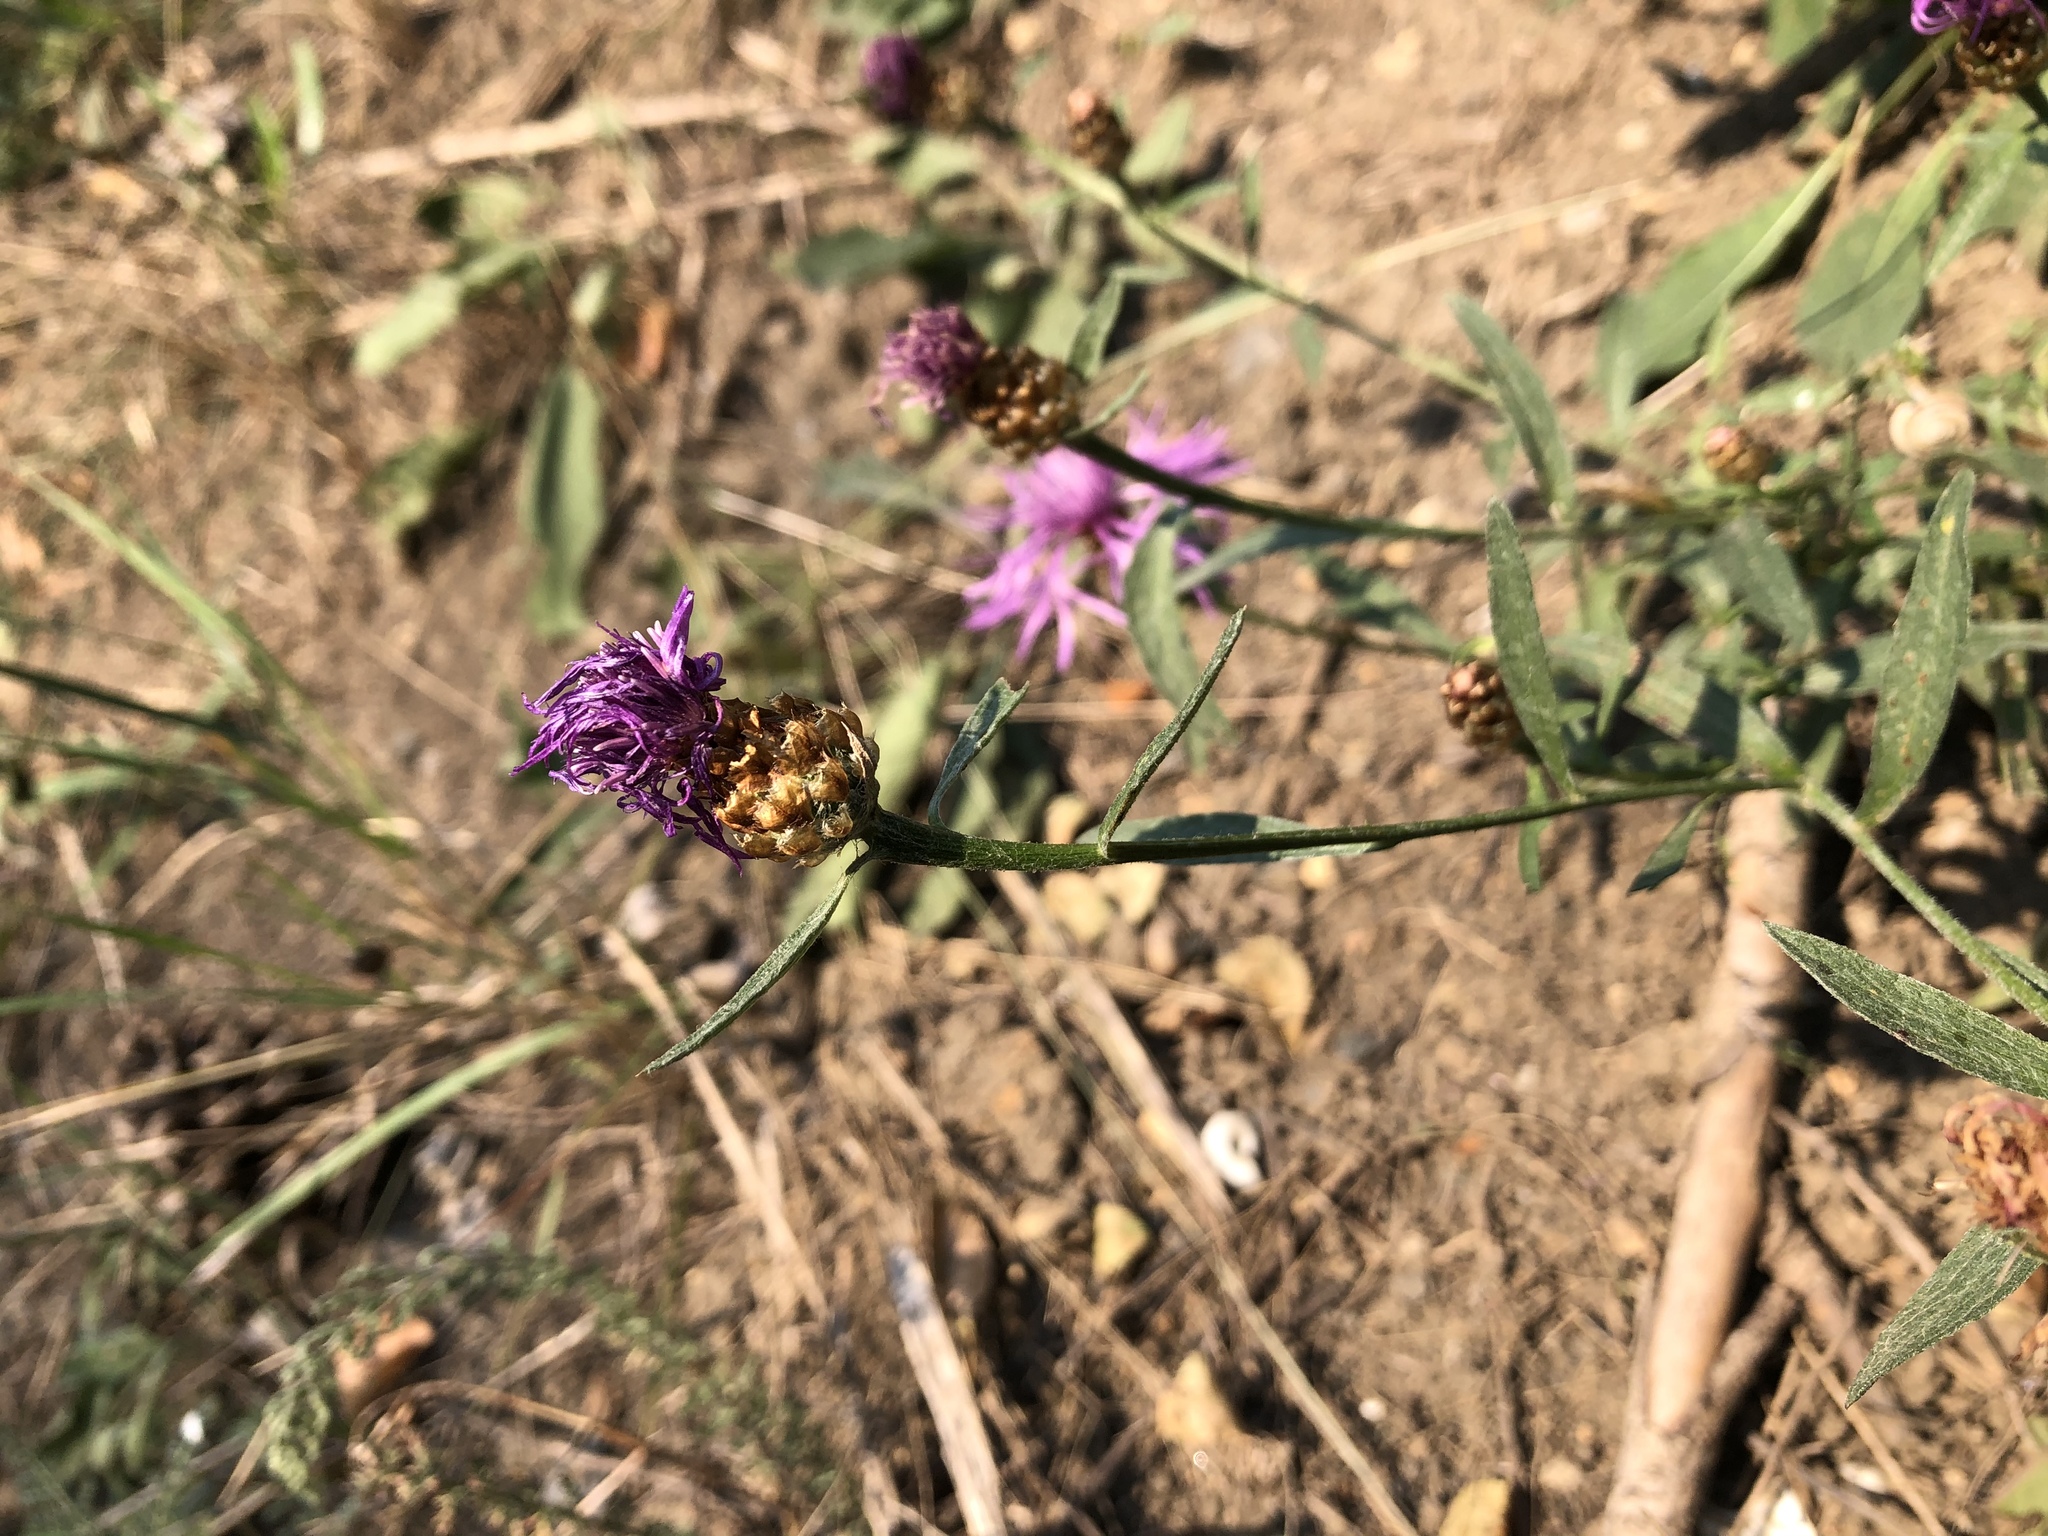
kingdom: Plantae
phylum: Tracheophyta
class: Magnoliopsida
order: Asterales
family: Asteraceae
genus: Centaurea
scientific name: Centaurea jacea
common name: Brown knapweed
